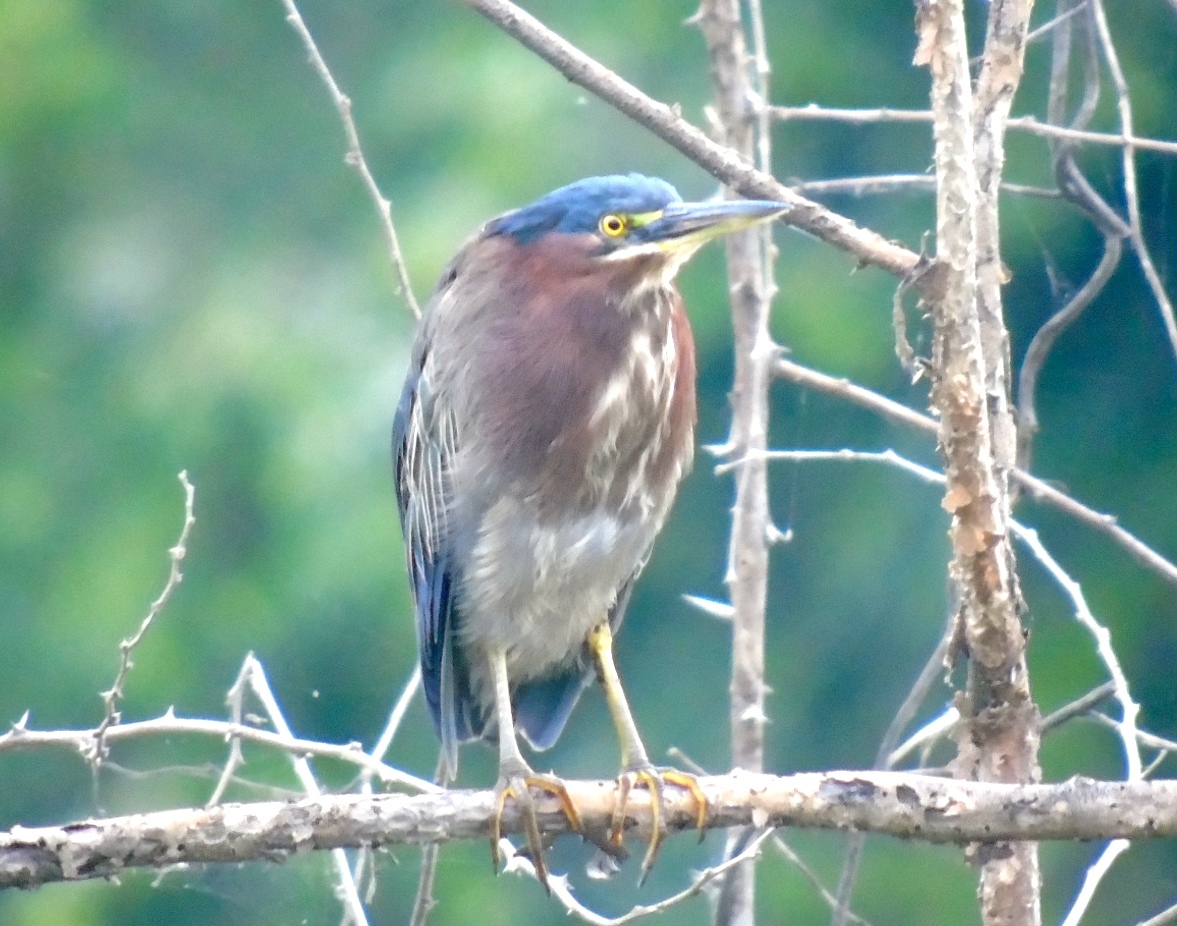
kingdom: Animalia
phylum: Chordata
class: Aves
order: Pelecaniformes
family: Ardeidae
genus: Butorides
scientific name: Butorides virescens
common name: Green heron
